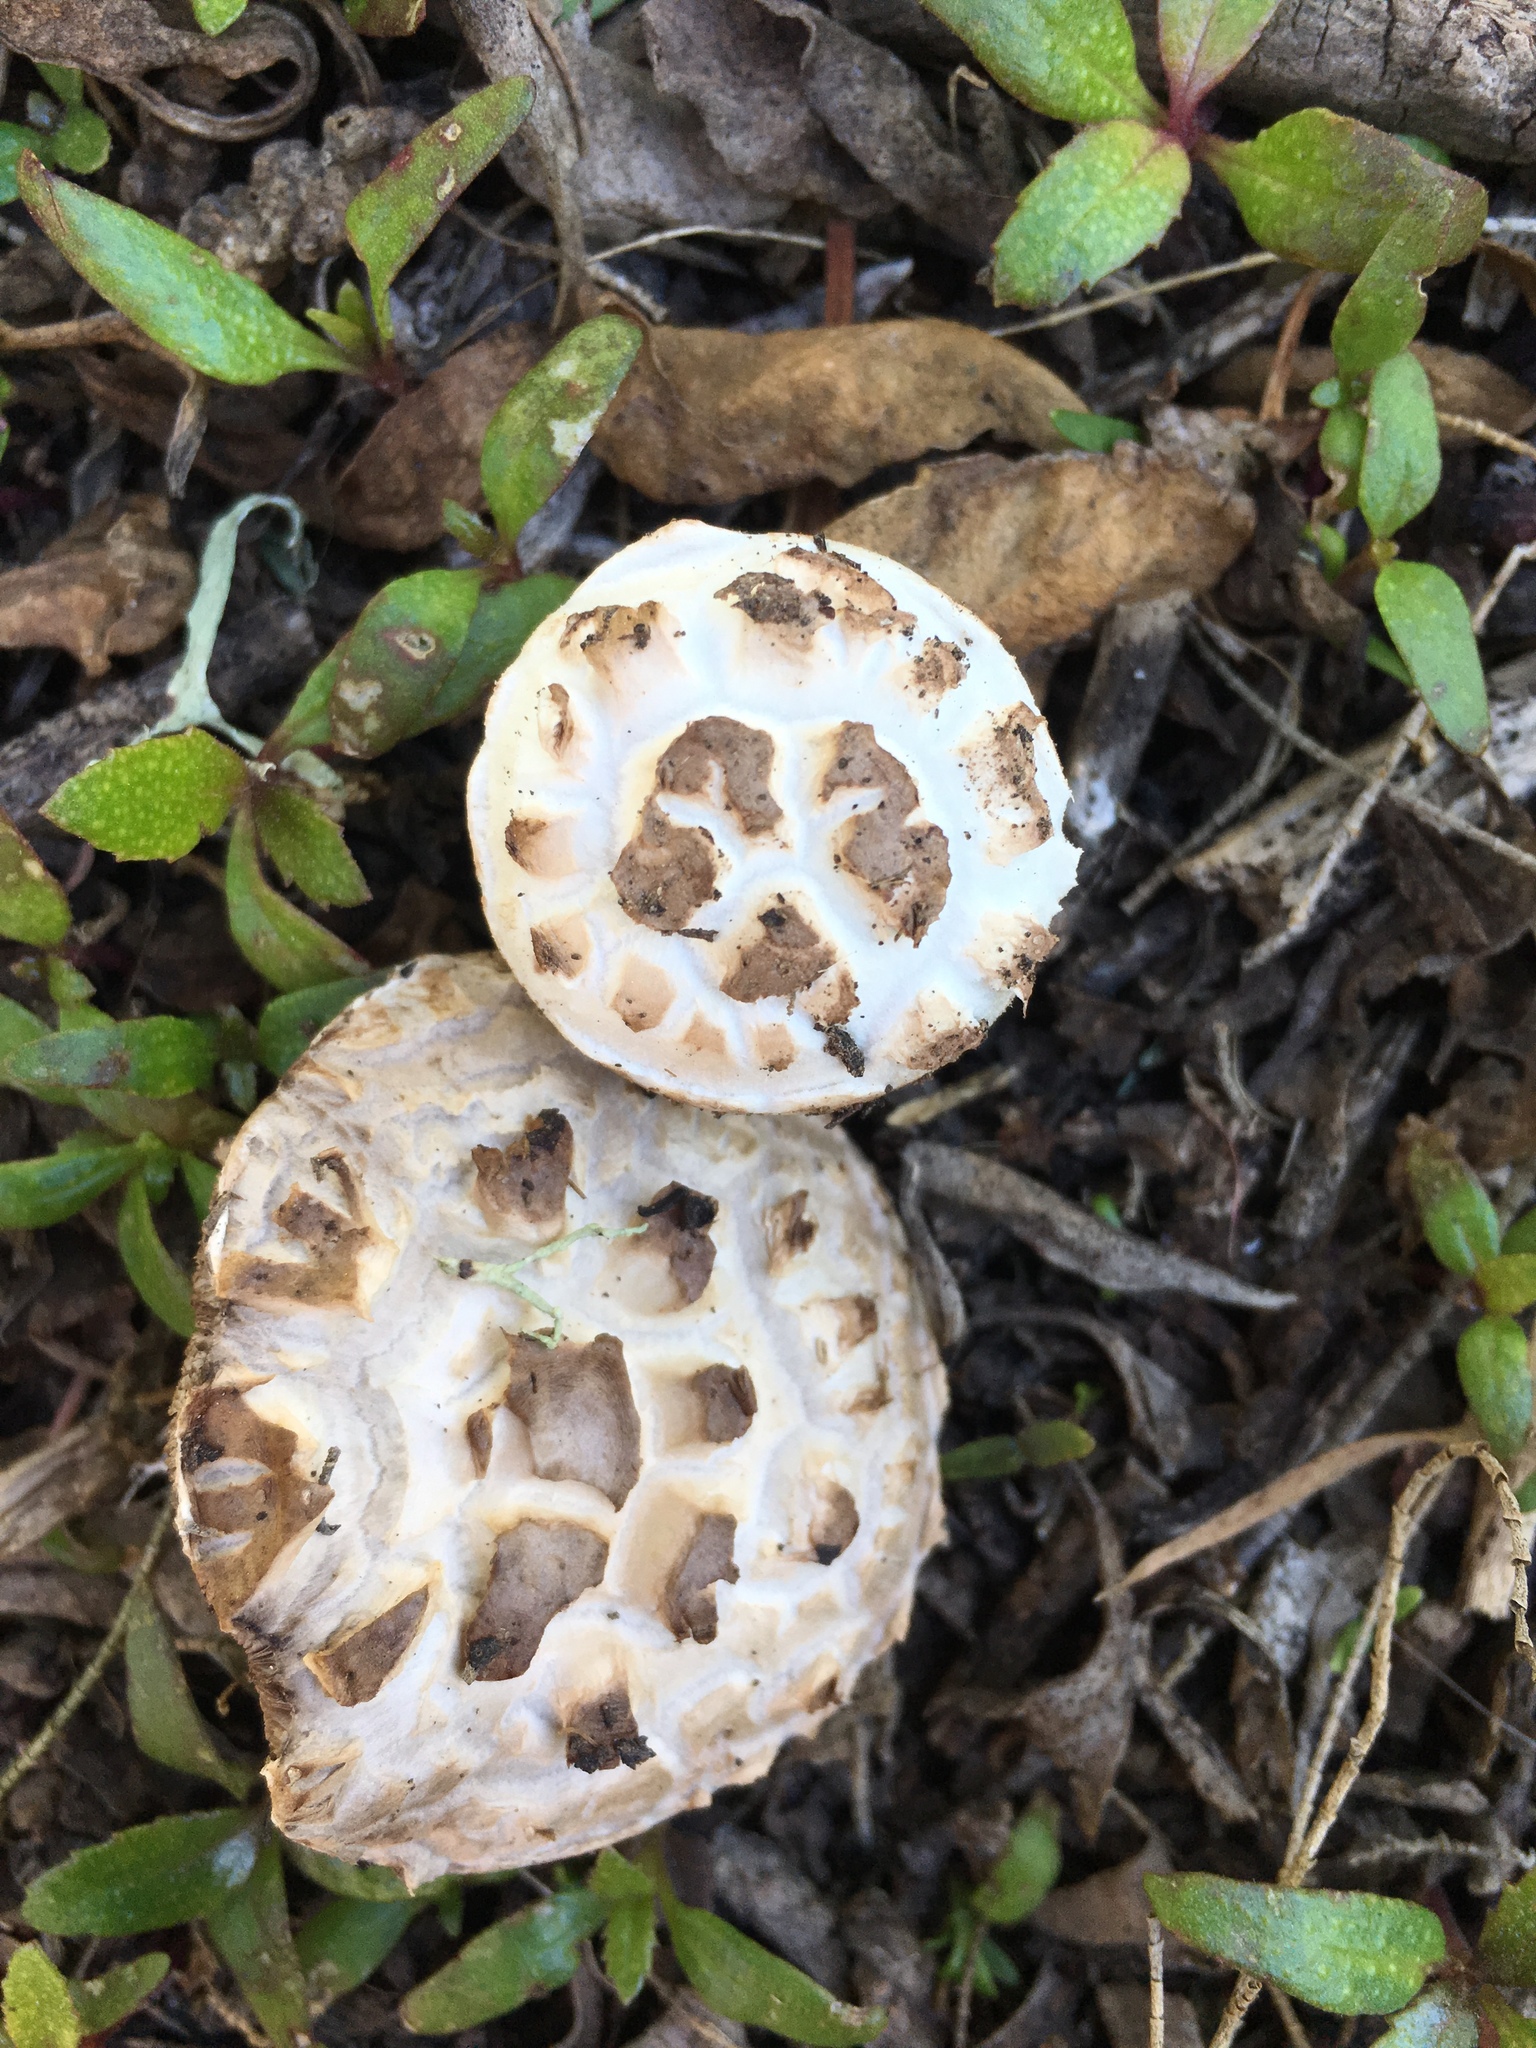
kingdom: Fungi
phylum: Basidiomycota
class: Agaricomycetes
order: Agaricales
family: Agaricaceae
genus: Agaricus
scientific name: Agaricus bisporus
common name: Cultivated mushroom
